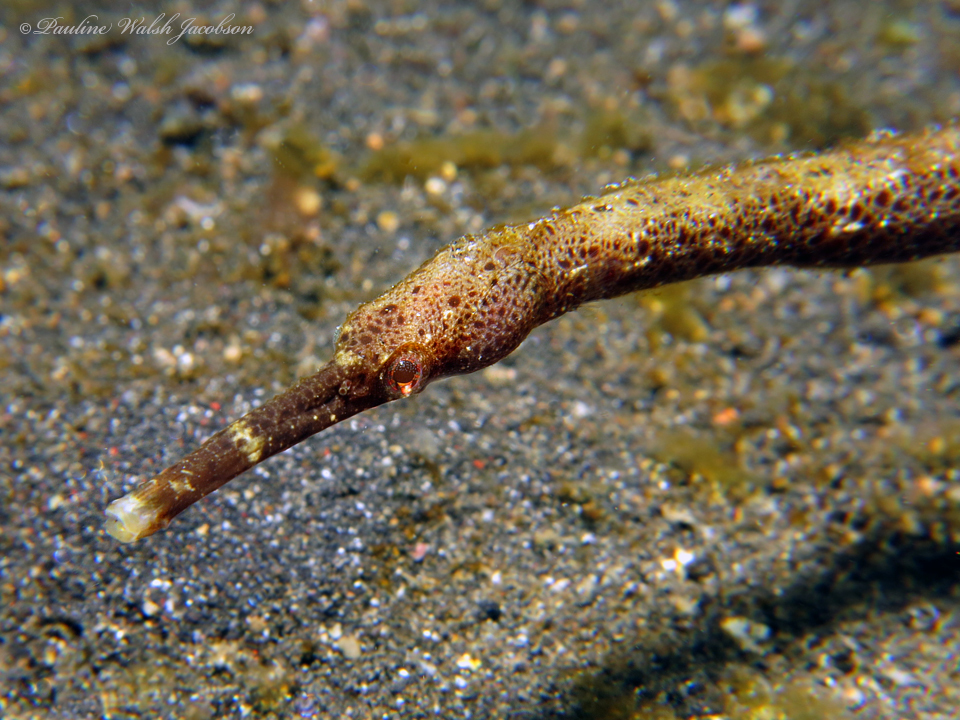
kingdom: Animalia
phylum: Chordata
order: Syngnathiformes
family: Syngnathidae
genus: Trachyrhamphus
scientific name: Trachyrhamphus bicoarctatus
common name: Double-ended pipefish
